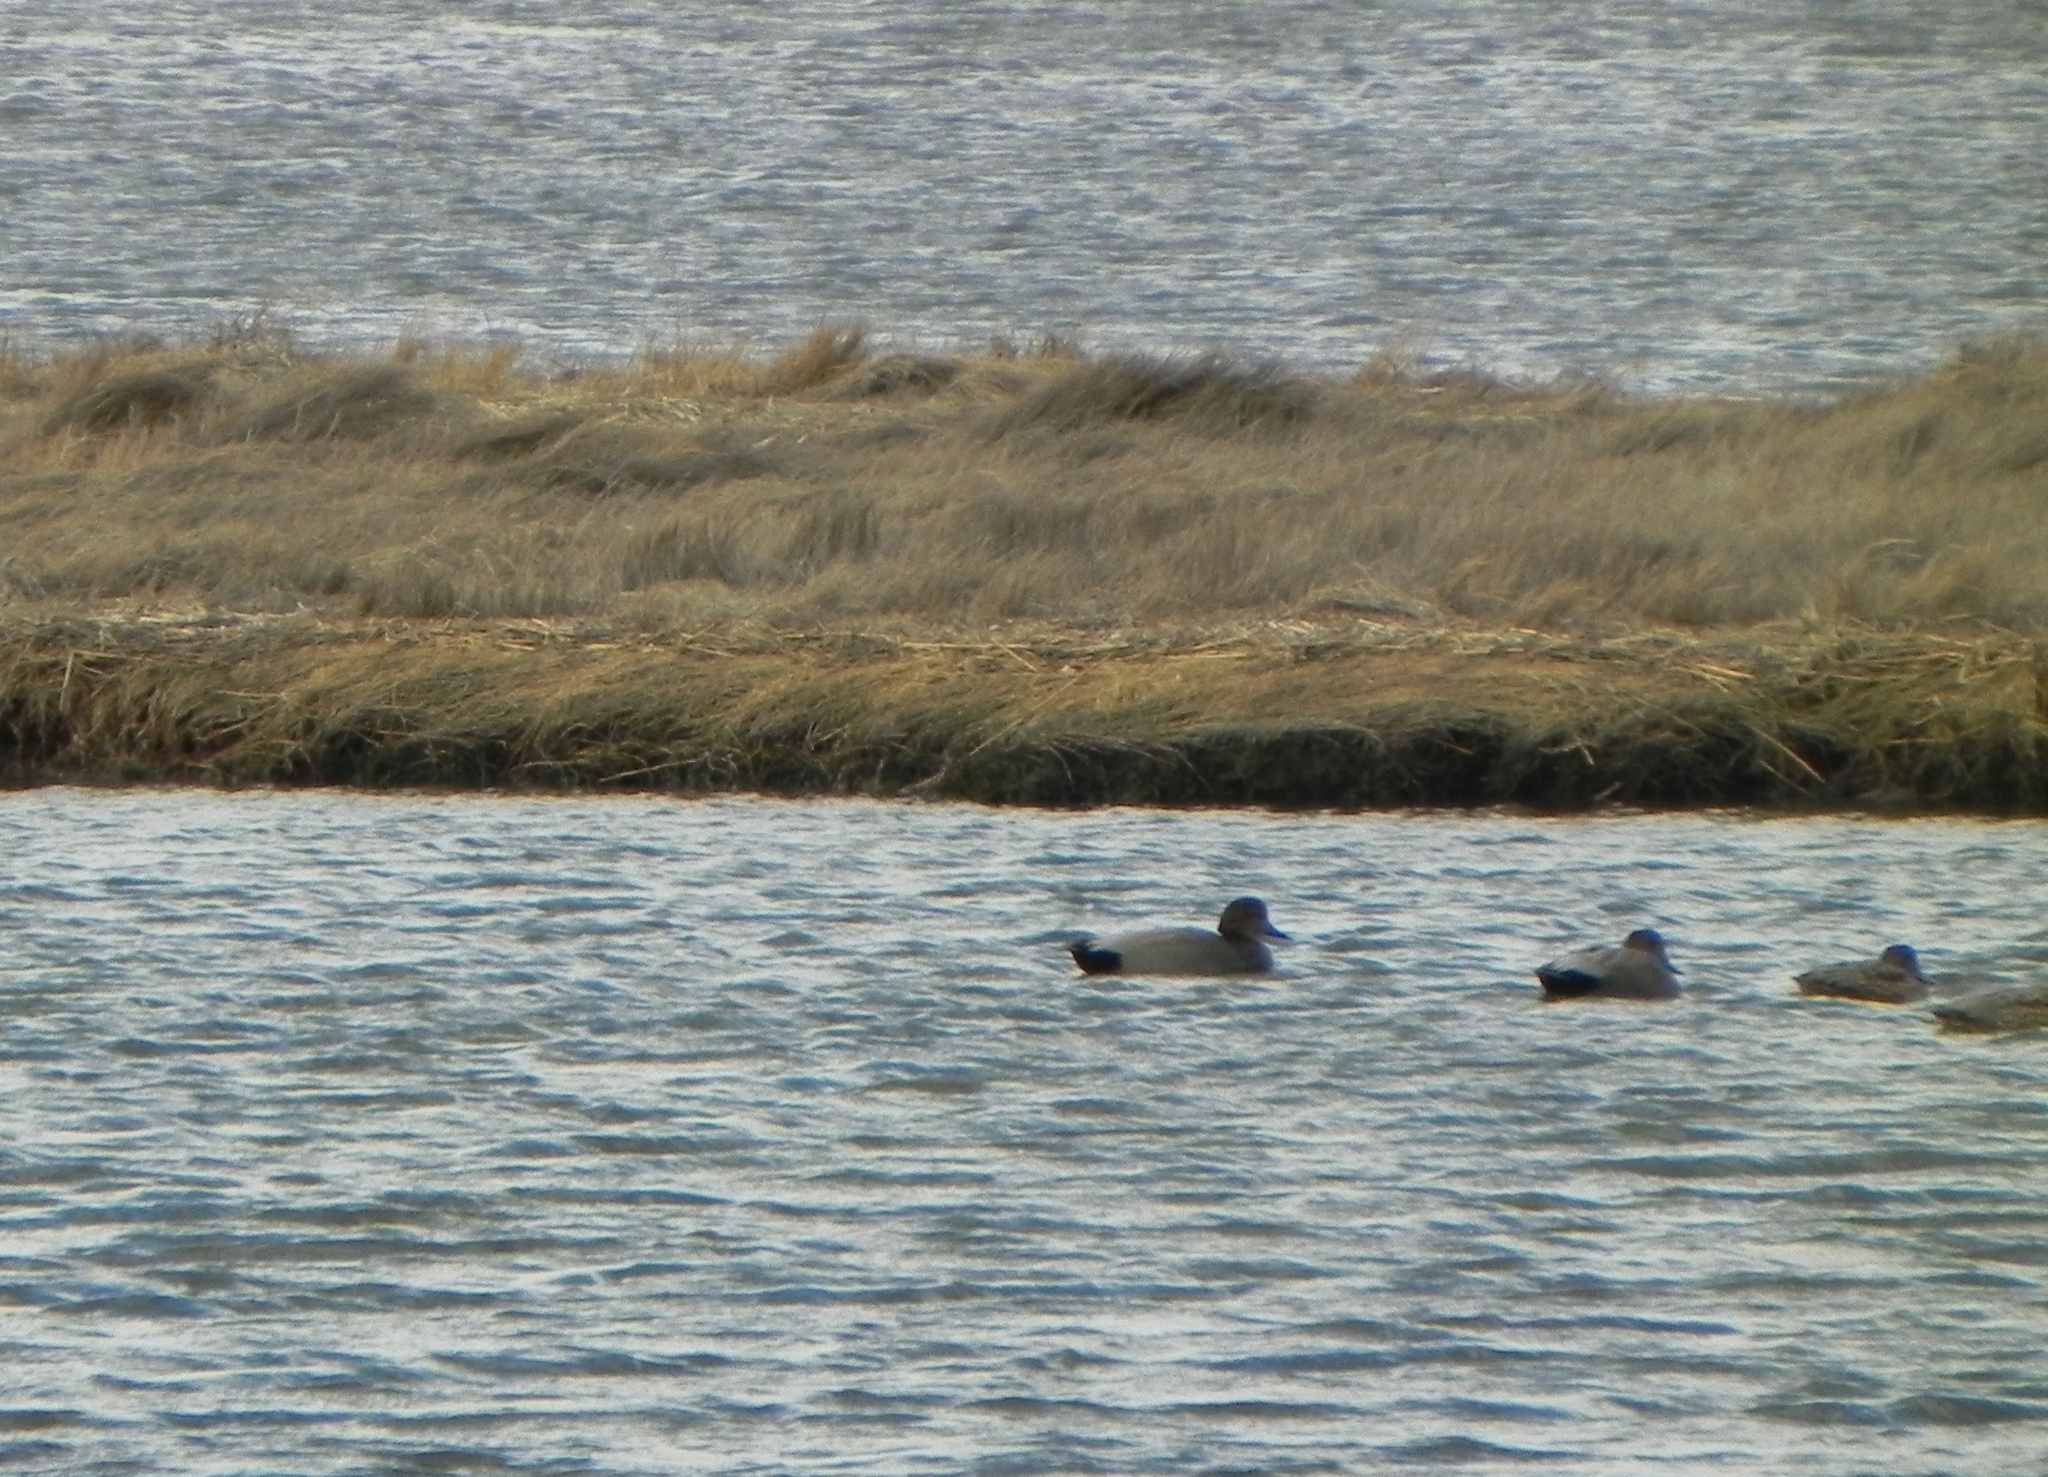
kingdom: Animalia
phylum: Chordata
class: Aves
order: Anseriformes
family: Anatidae
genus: Mareca
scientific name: Mareca strepera
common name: Gadwall
